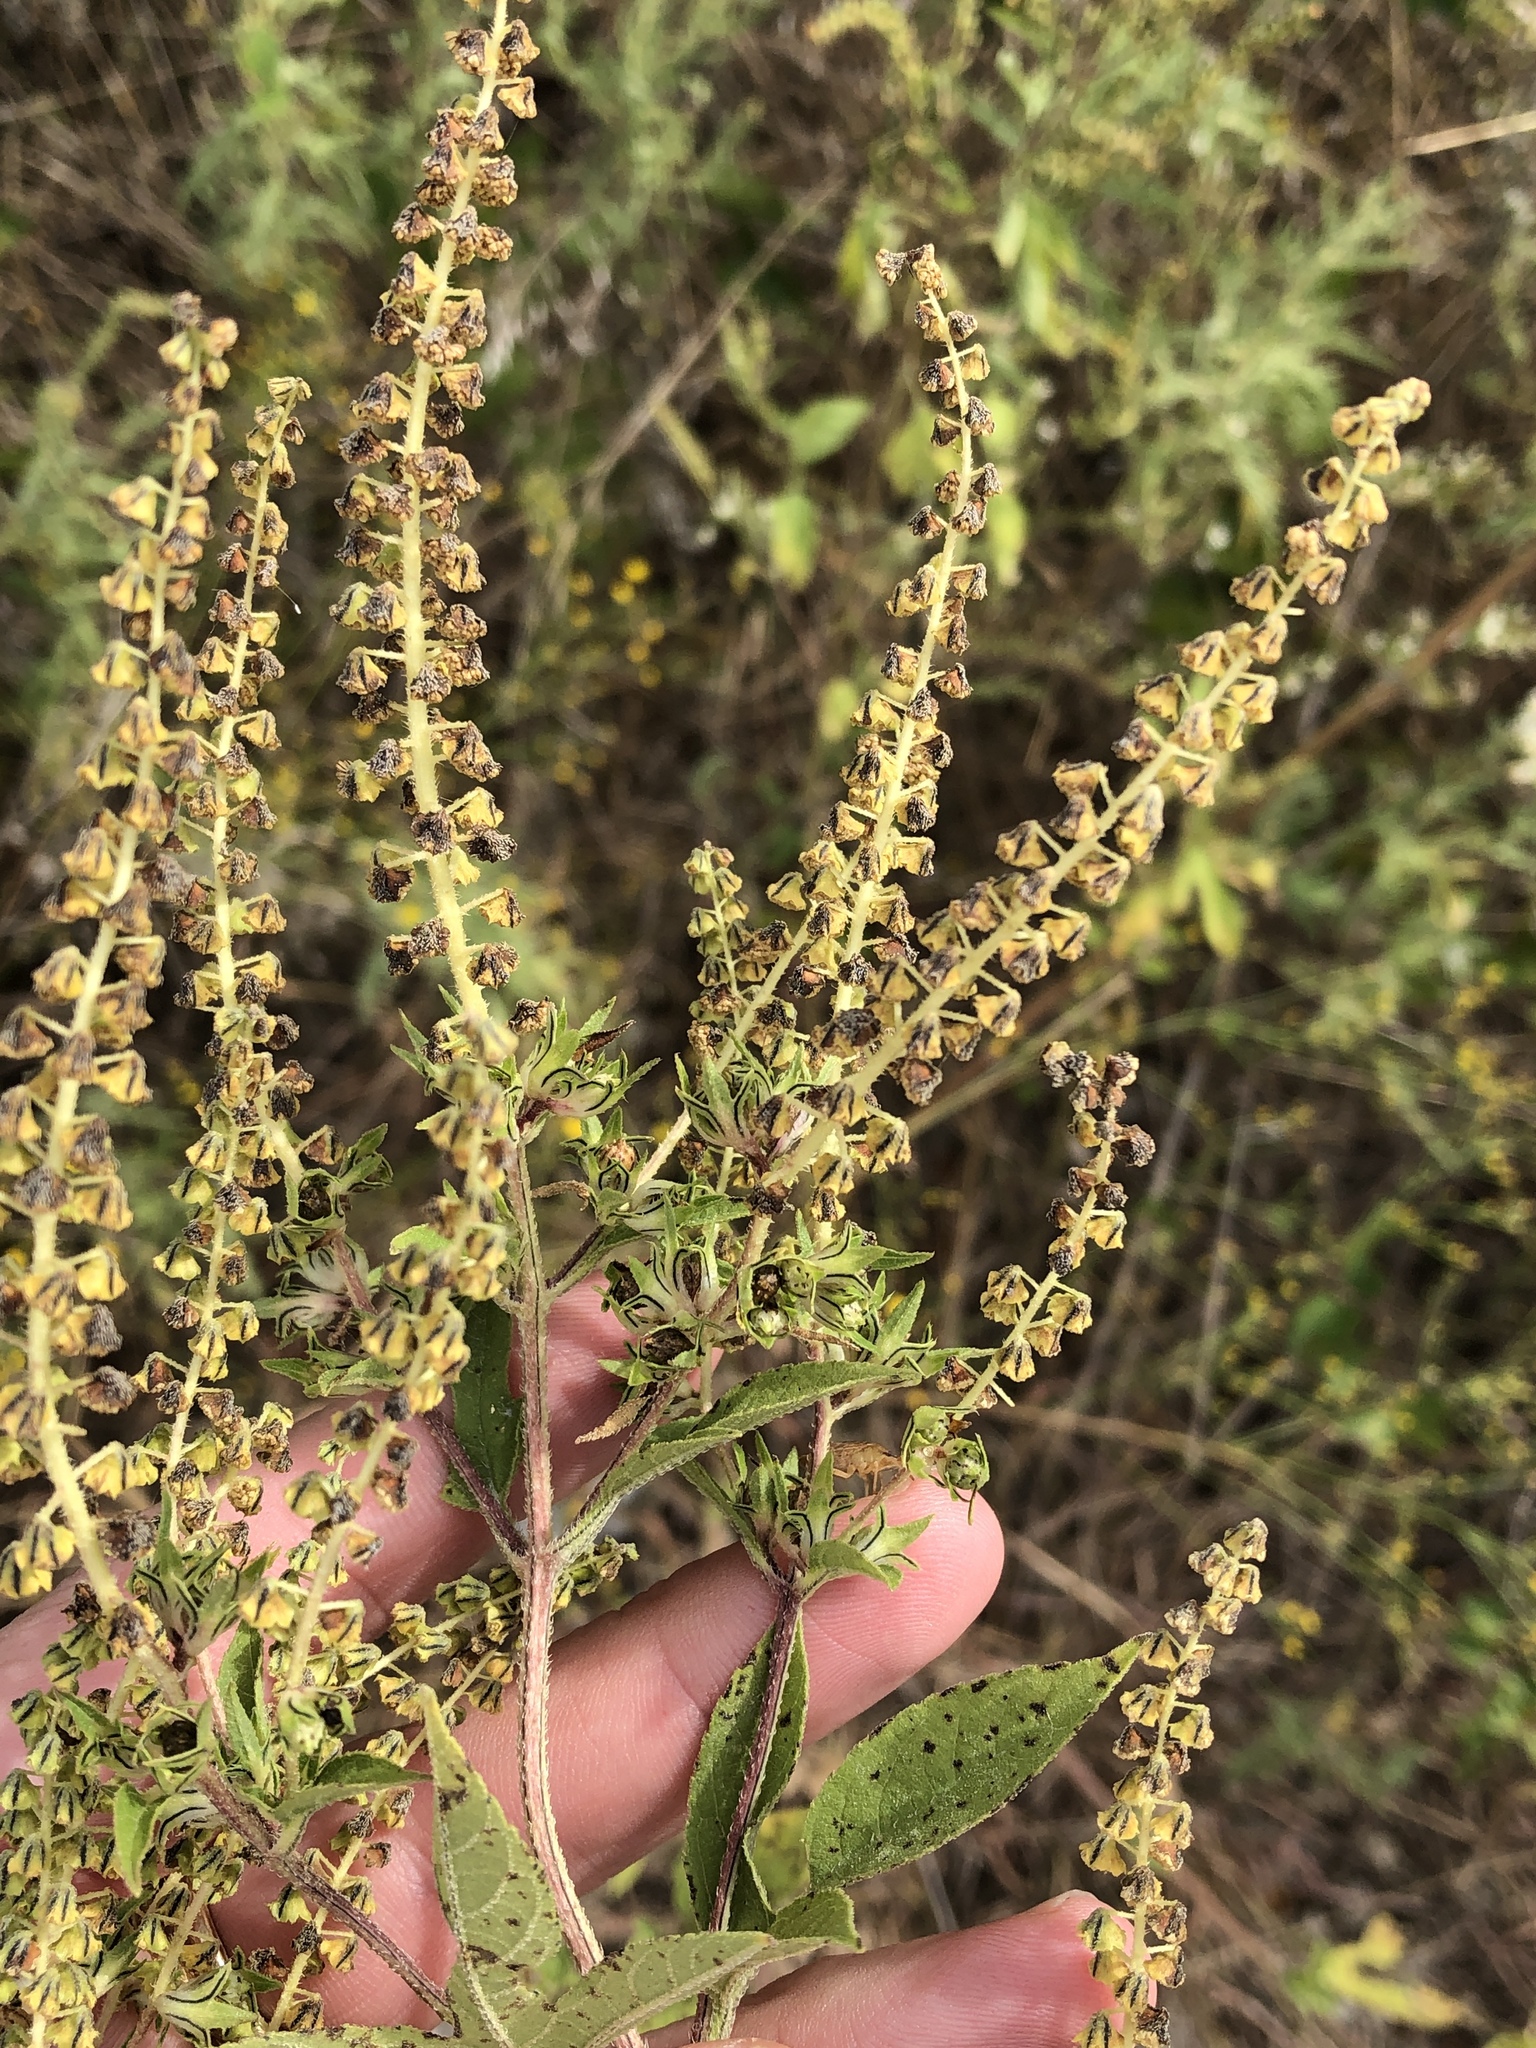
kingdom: Plantae
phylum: Tracheophyta
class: Magnoliopsida
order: Asterales
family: Asteraceae
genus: Ambrosia
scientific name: Ambrosia trifida
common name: Giant ragweed
